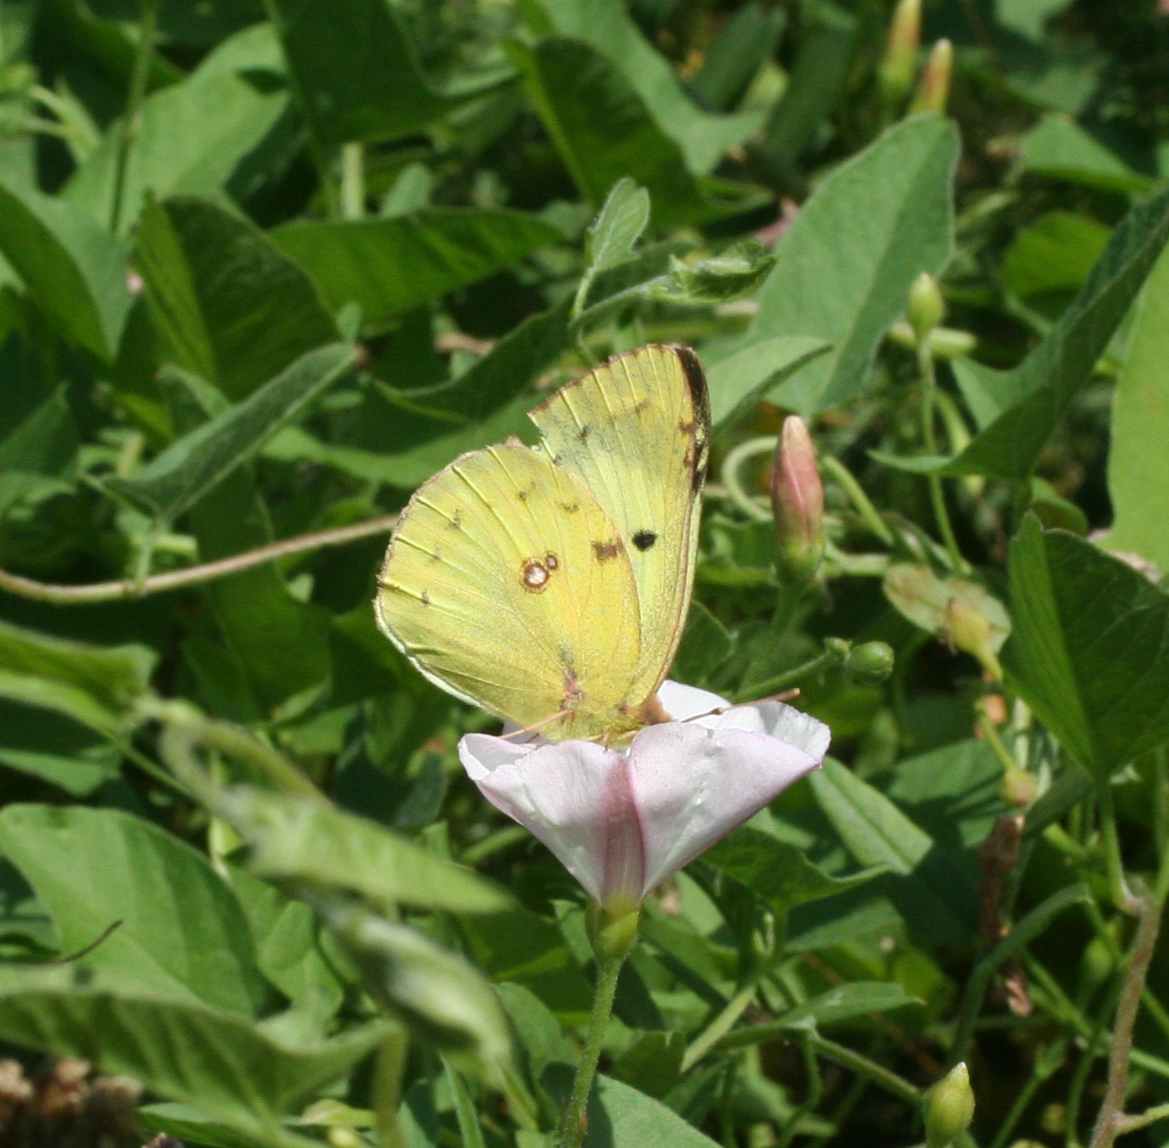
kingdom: Animalia
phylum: Arthropoda
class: Insecta
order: Lepidoptera
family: Pieridae
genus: Colias
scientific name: Colias hyale
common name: Pale clouded yellow
